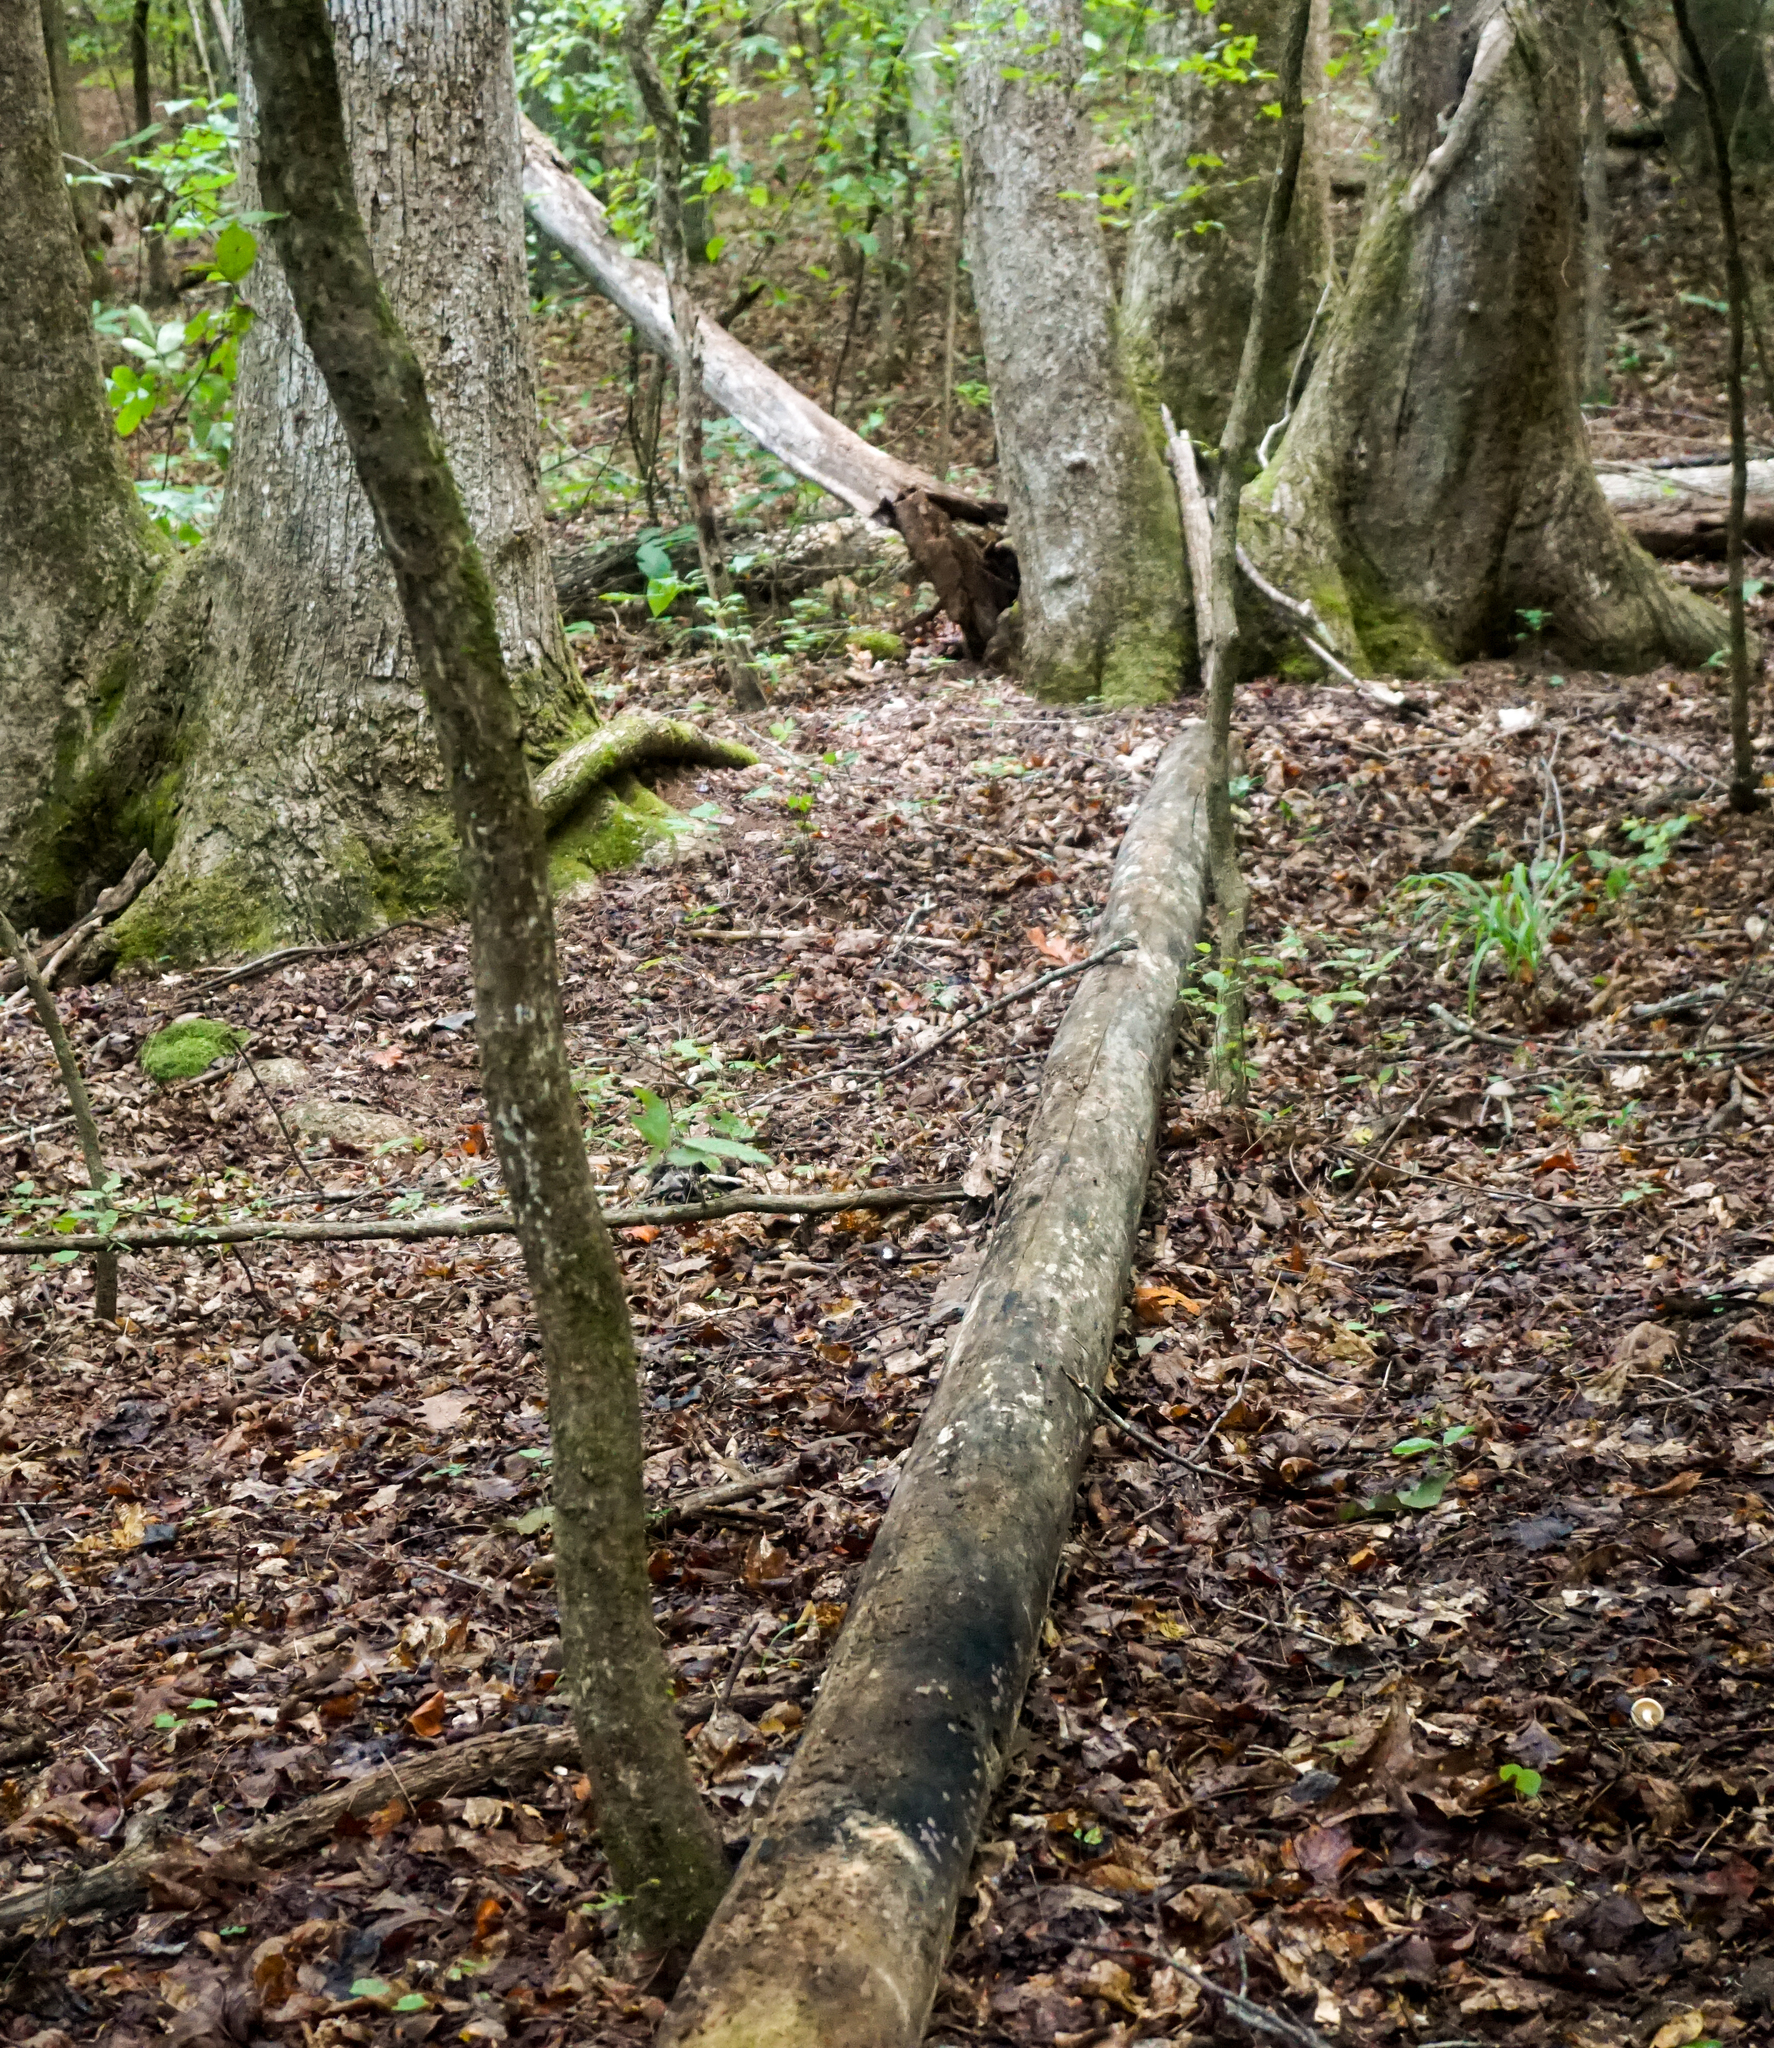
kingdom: Fungi
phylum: Ascomycota
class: Sordariomycetes
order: Xylariales
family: Hypoxylaceae
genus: Hypoxylon
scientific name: Hypoxylon rubiginosum
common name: Rusty woodwart
